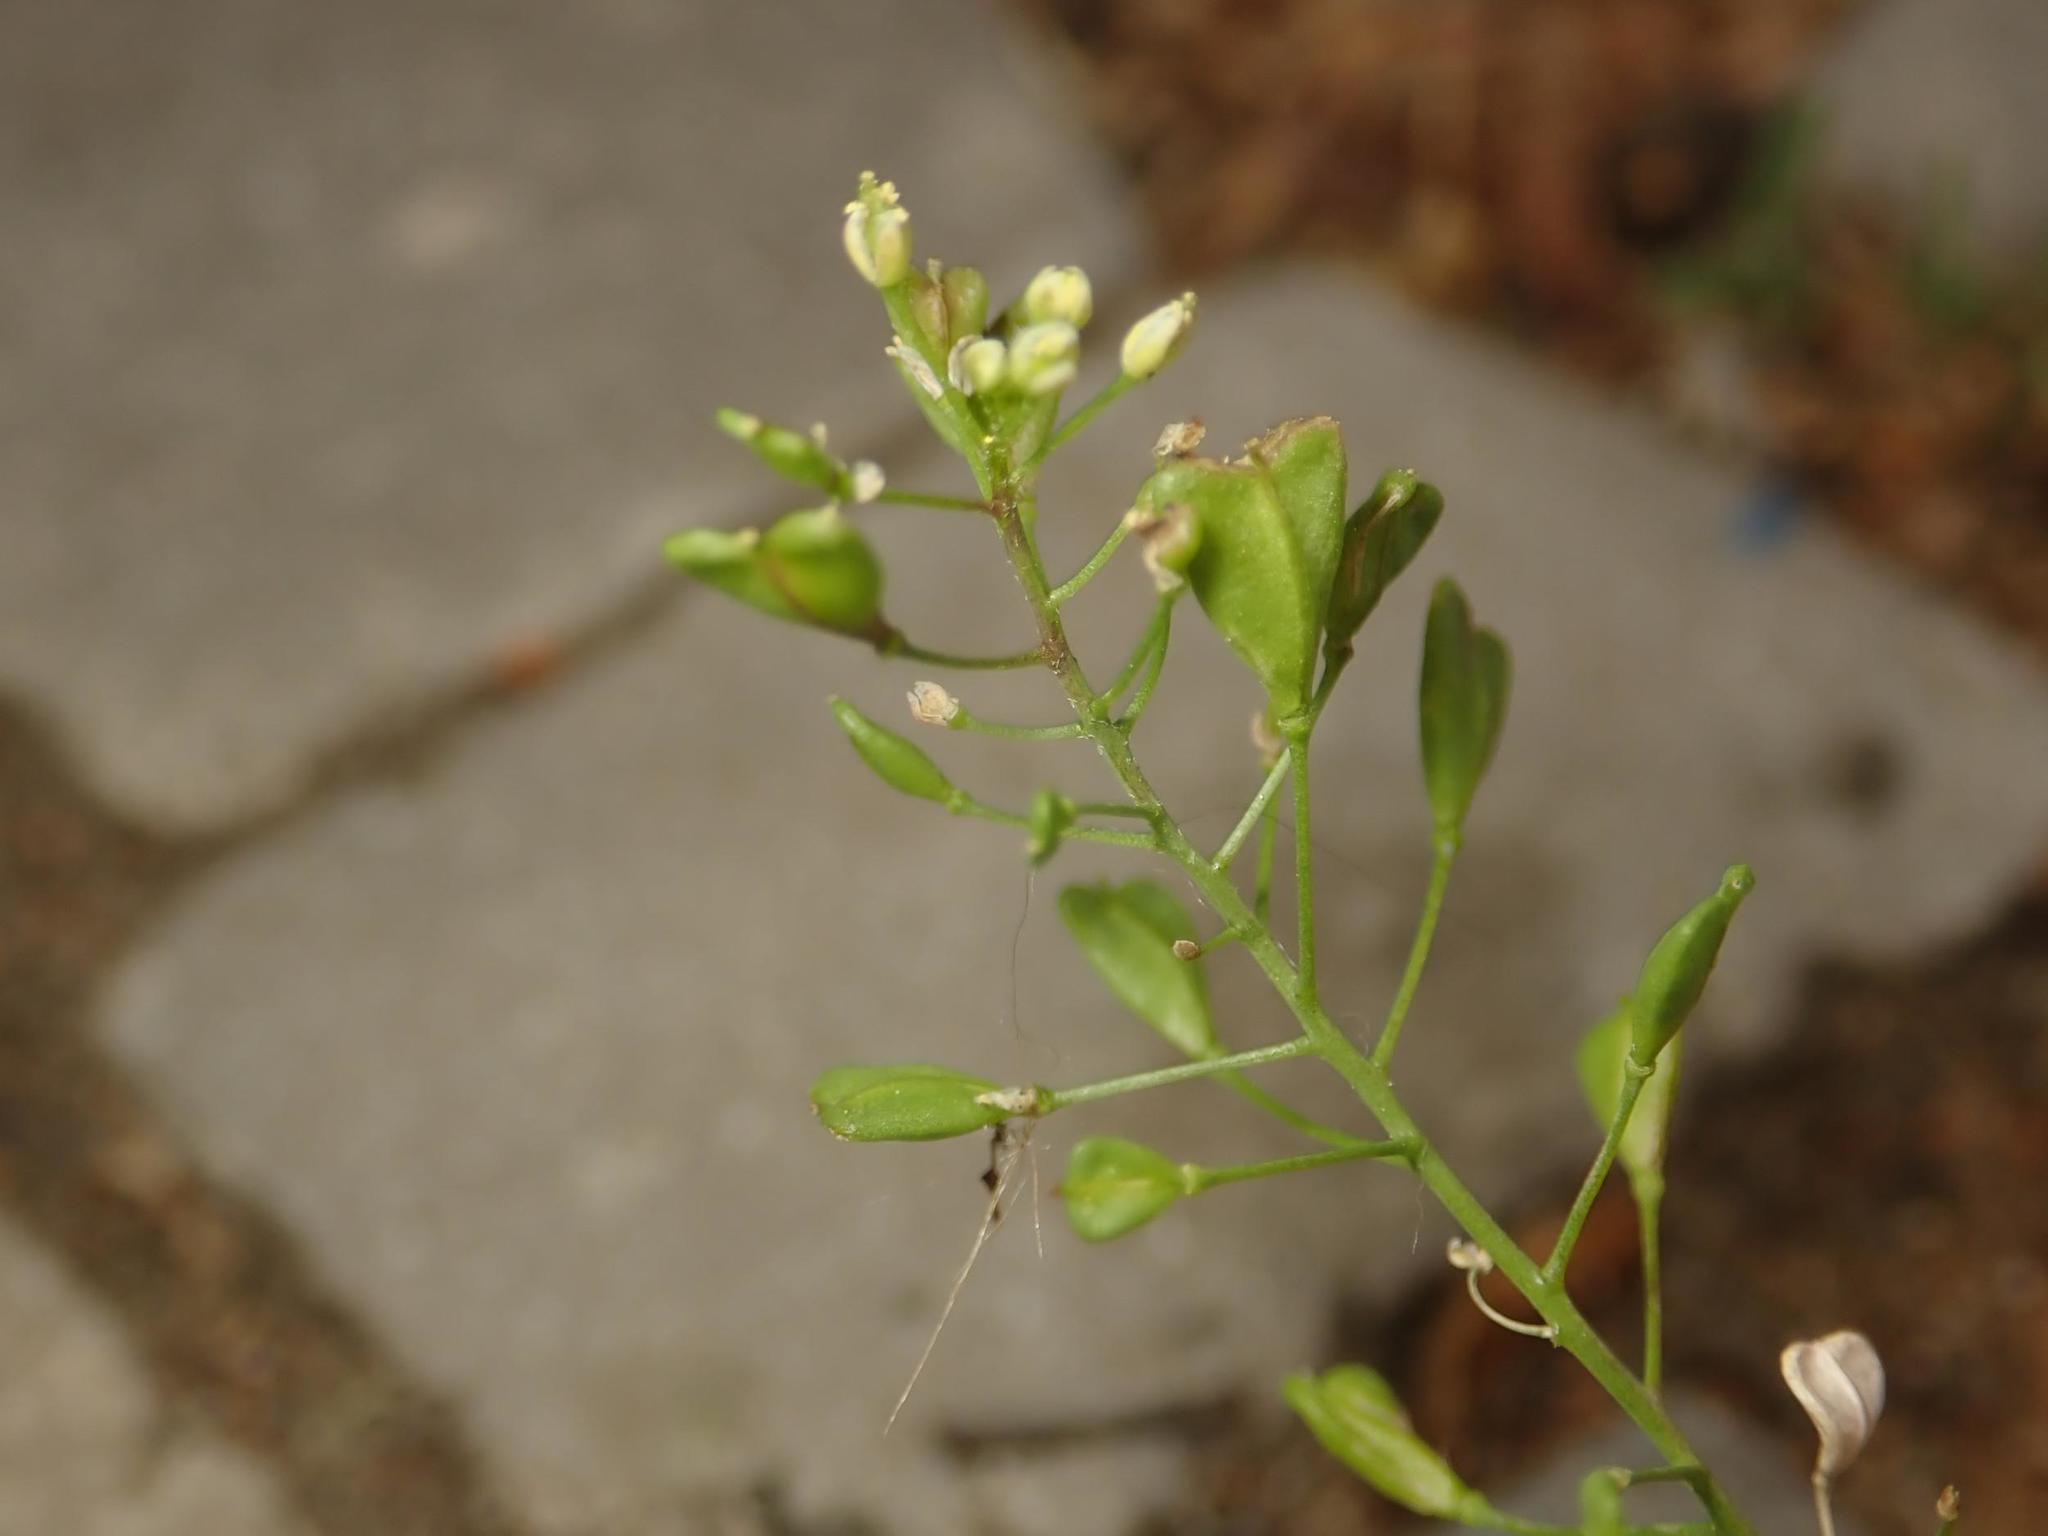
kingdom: Plantae
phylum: Tracheophyta
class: Magnoliopsida
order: Brassicales
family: Brassicaceae
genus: Capsella
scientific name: Capsella bursa-pastoris
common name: Shepherd's purse
